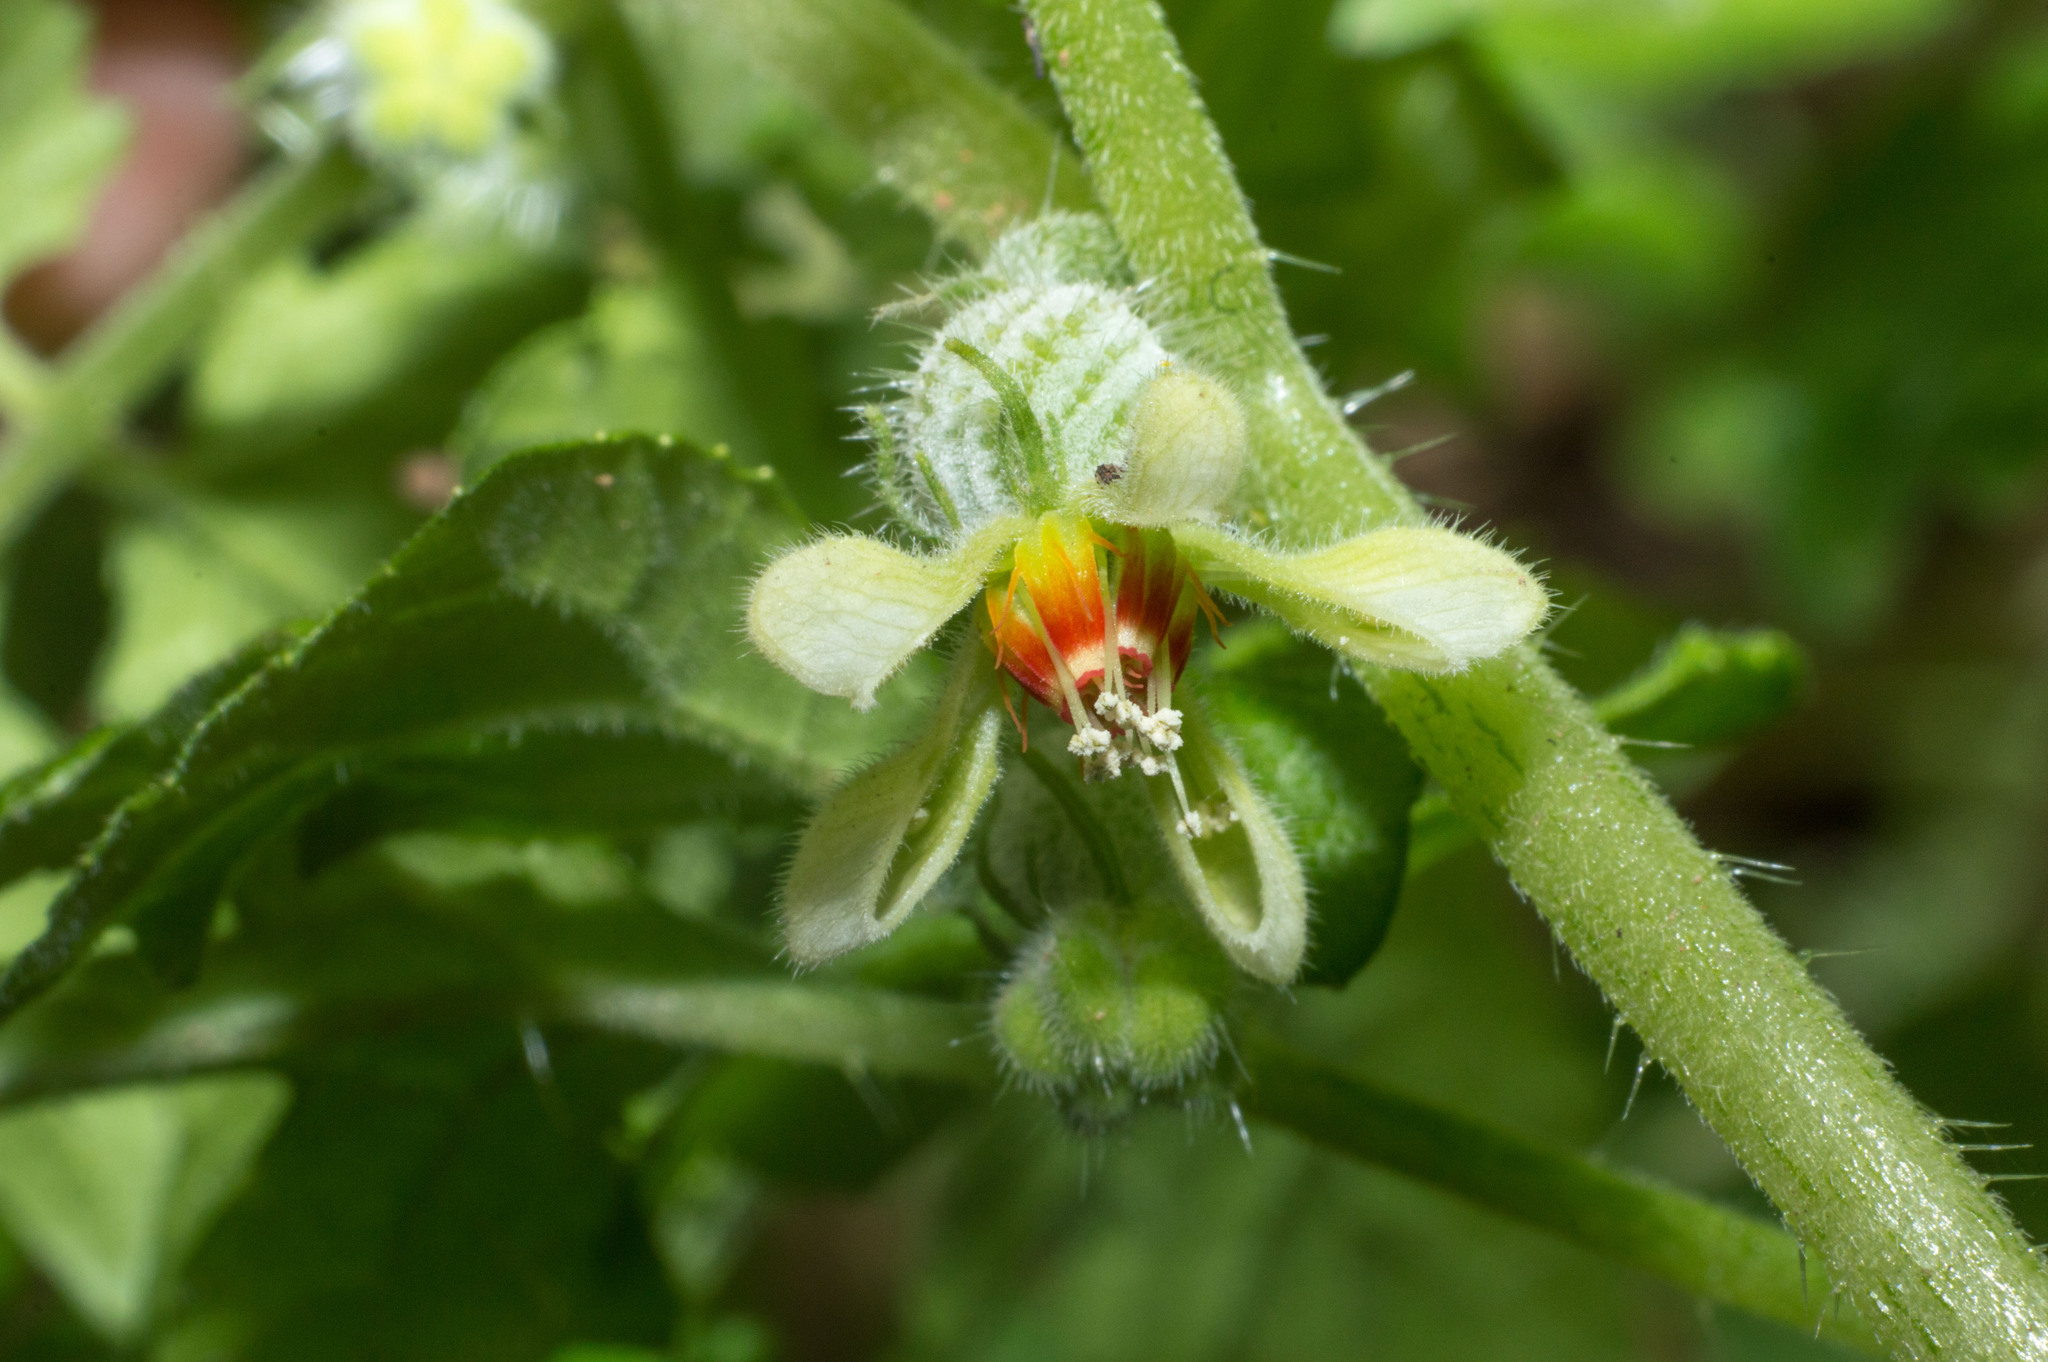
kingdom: Plantae
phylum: Tracheophyta
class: Magnoliopsida
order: Cornales
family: Loasaceae
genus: Blumenbachia
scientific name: Blumenbachia latifolia
